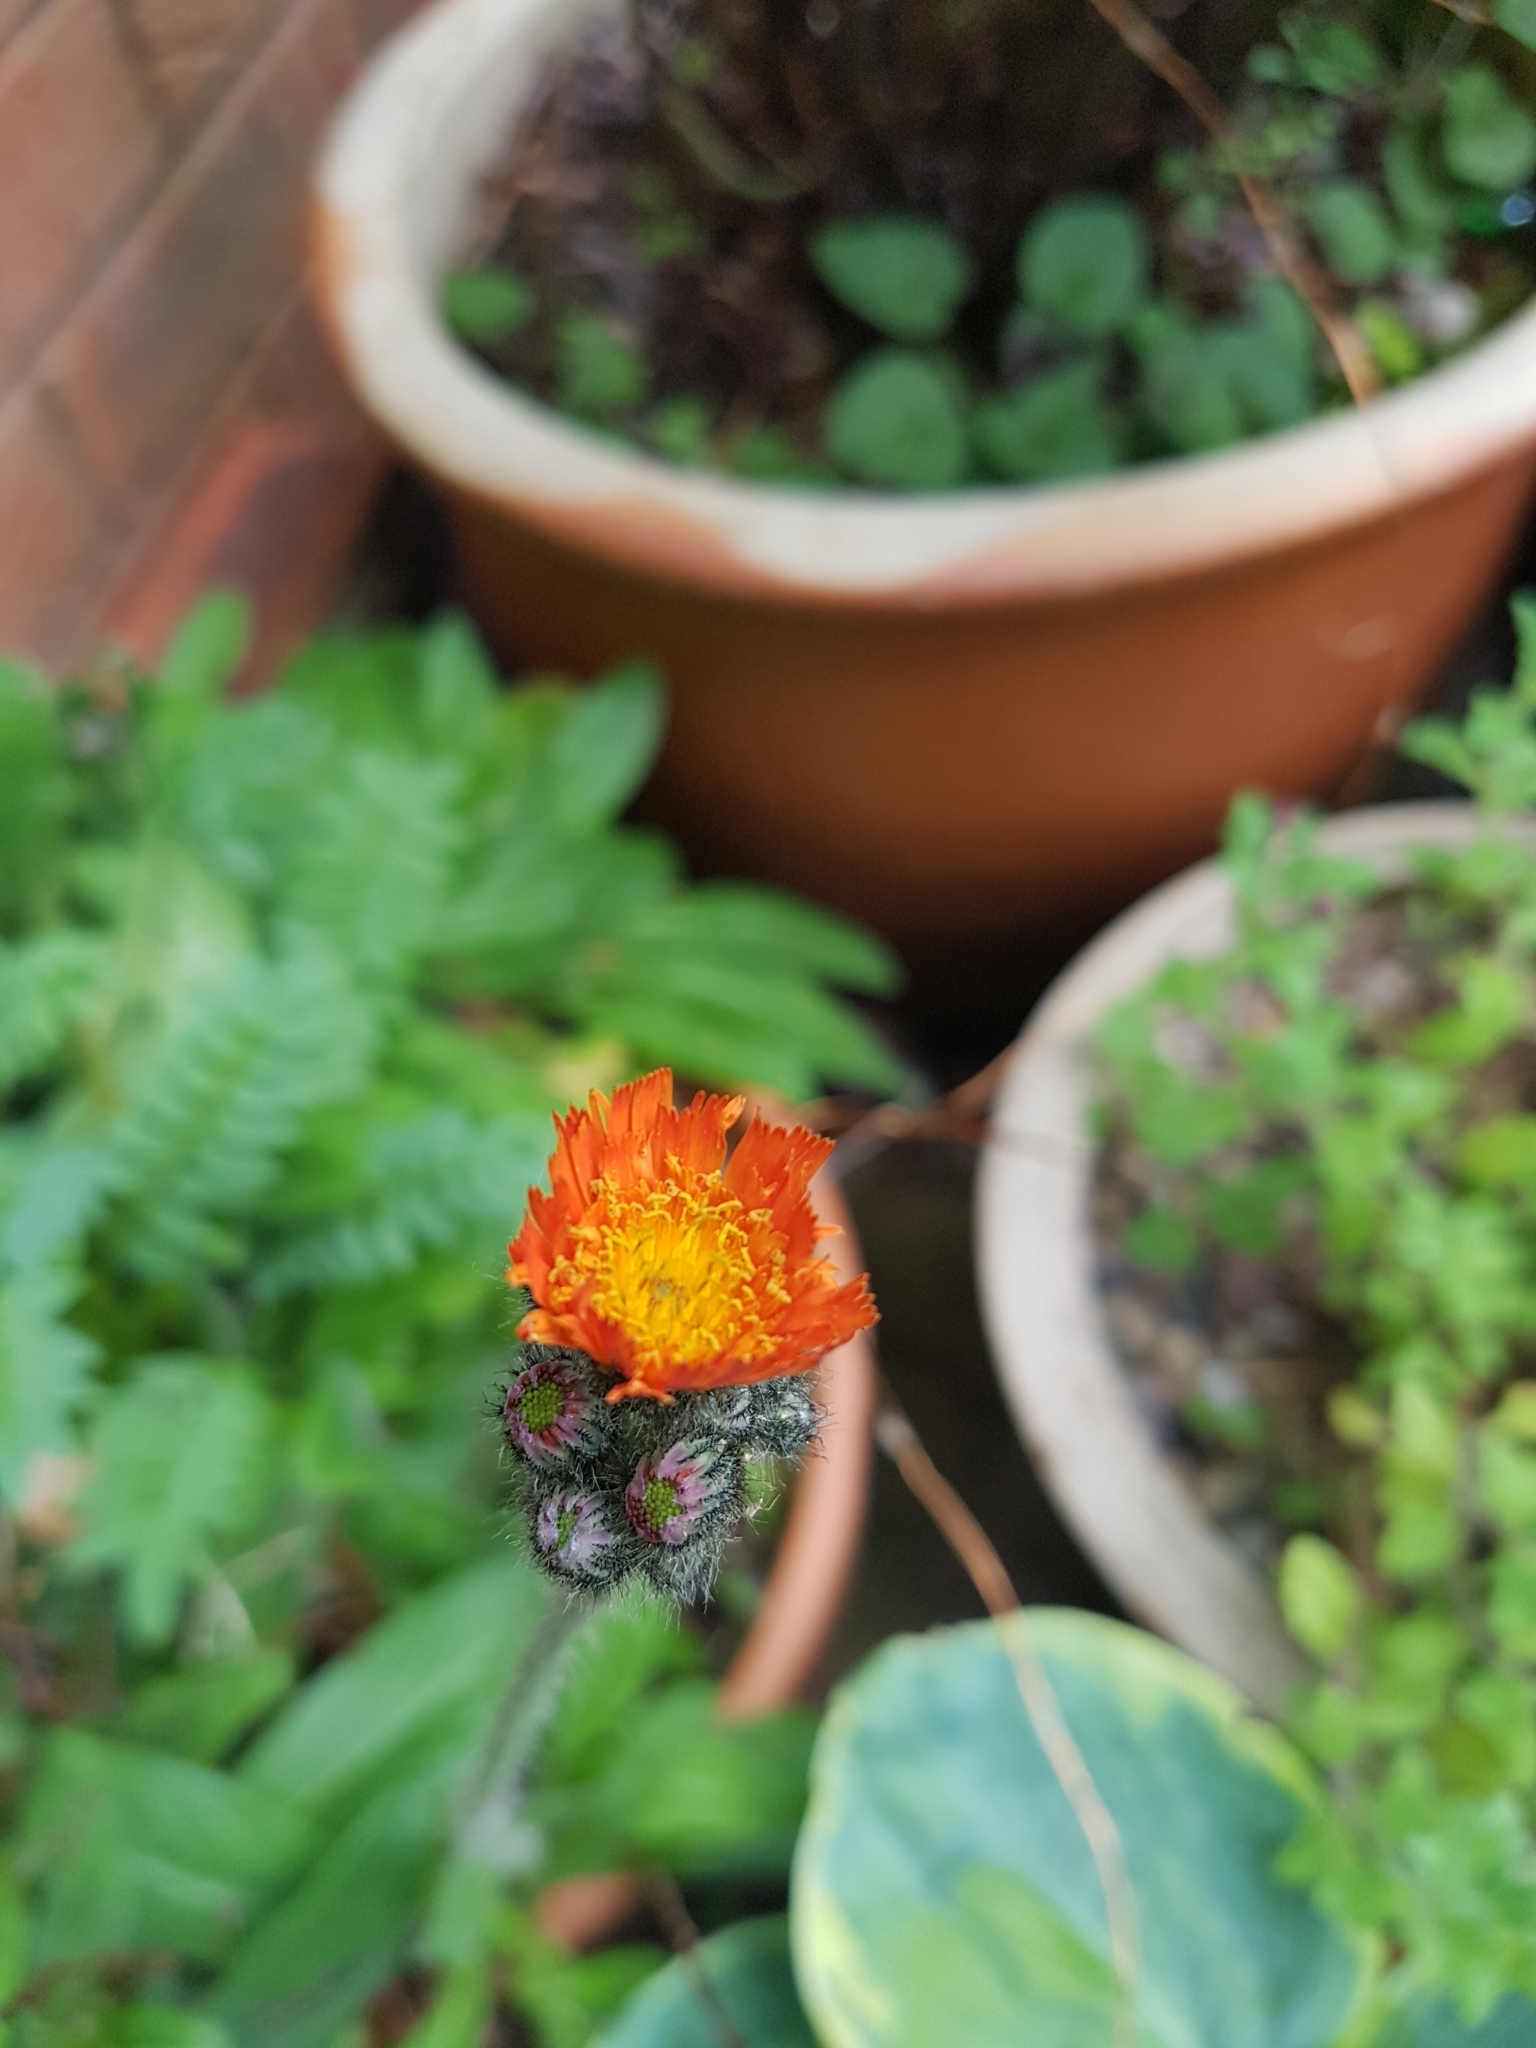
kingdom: Plantae
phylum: Tracheophyta
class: Magnoliopsida
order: Asterales
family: Asteraceae
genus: Pilosella
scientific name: Pilosella aurantiaca
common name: Fox-and-cubs
